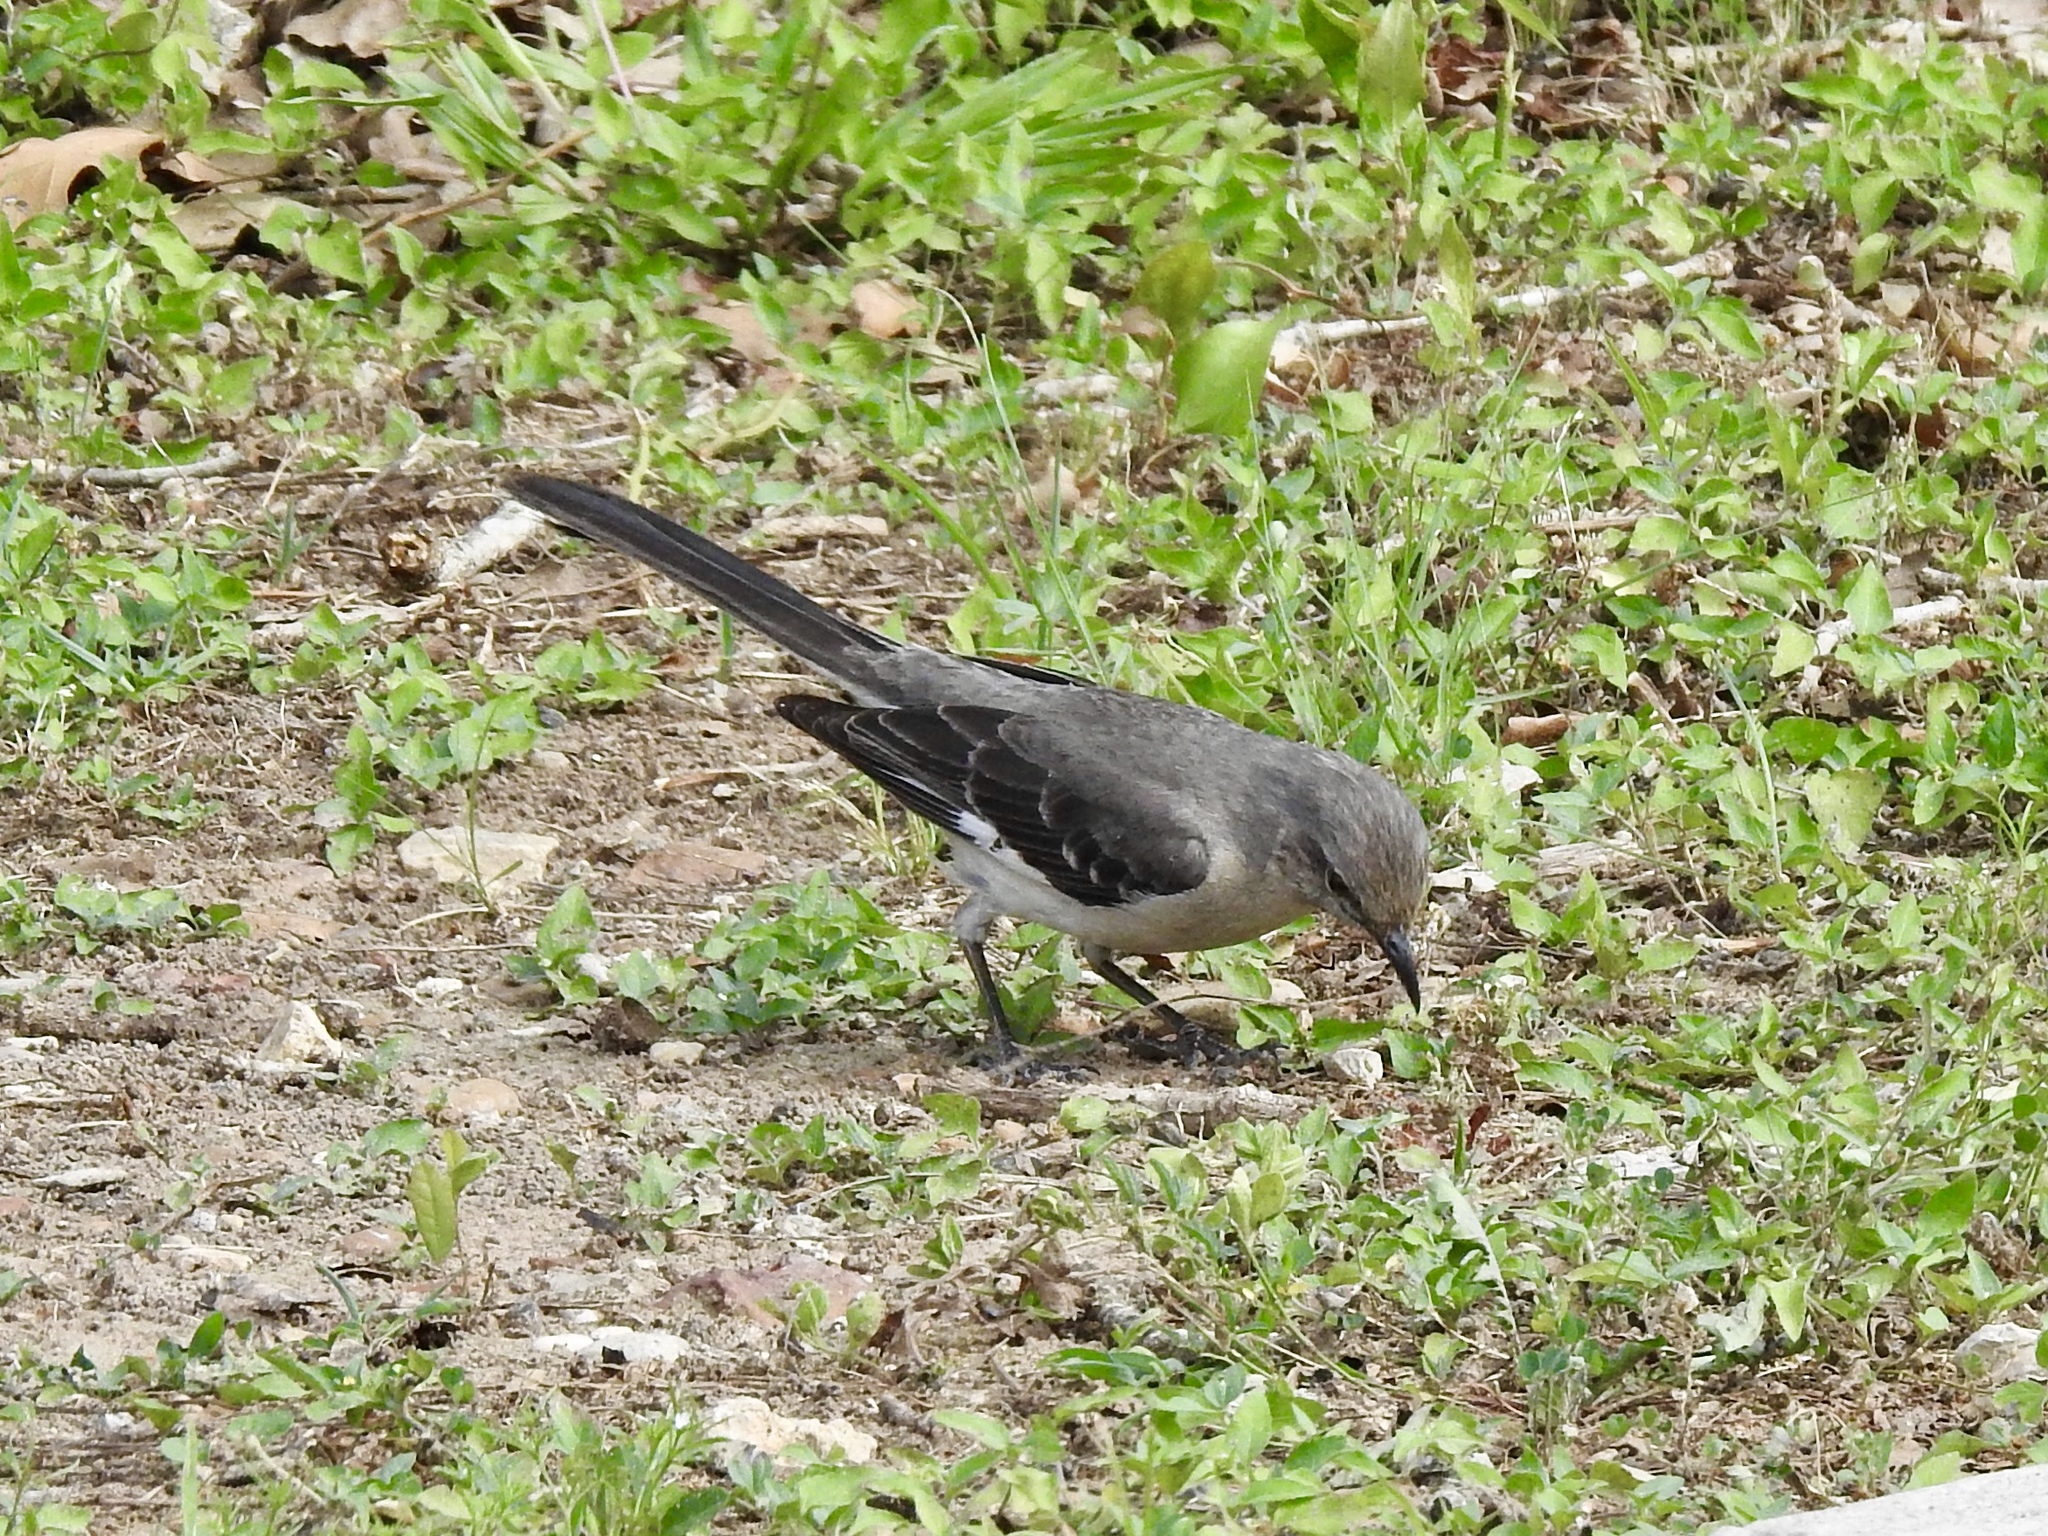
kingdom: Animalia
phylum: Chordata
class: Aves
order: Passeriformes
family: Mimidae
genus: Mimus
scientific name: Mimus polyglottos
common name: Northern mockingbird
